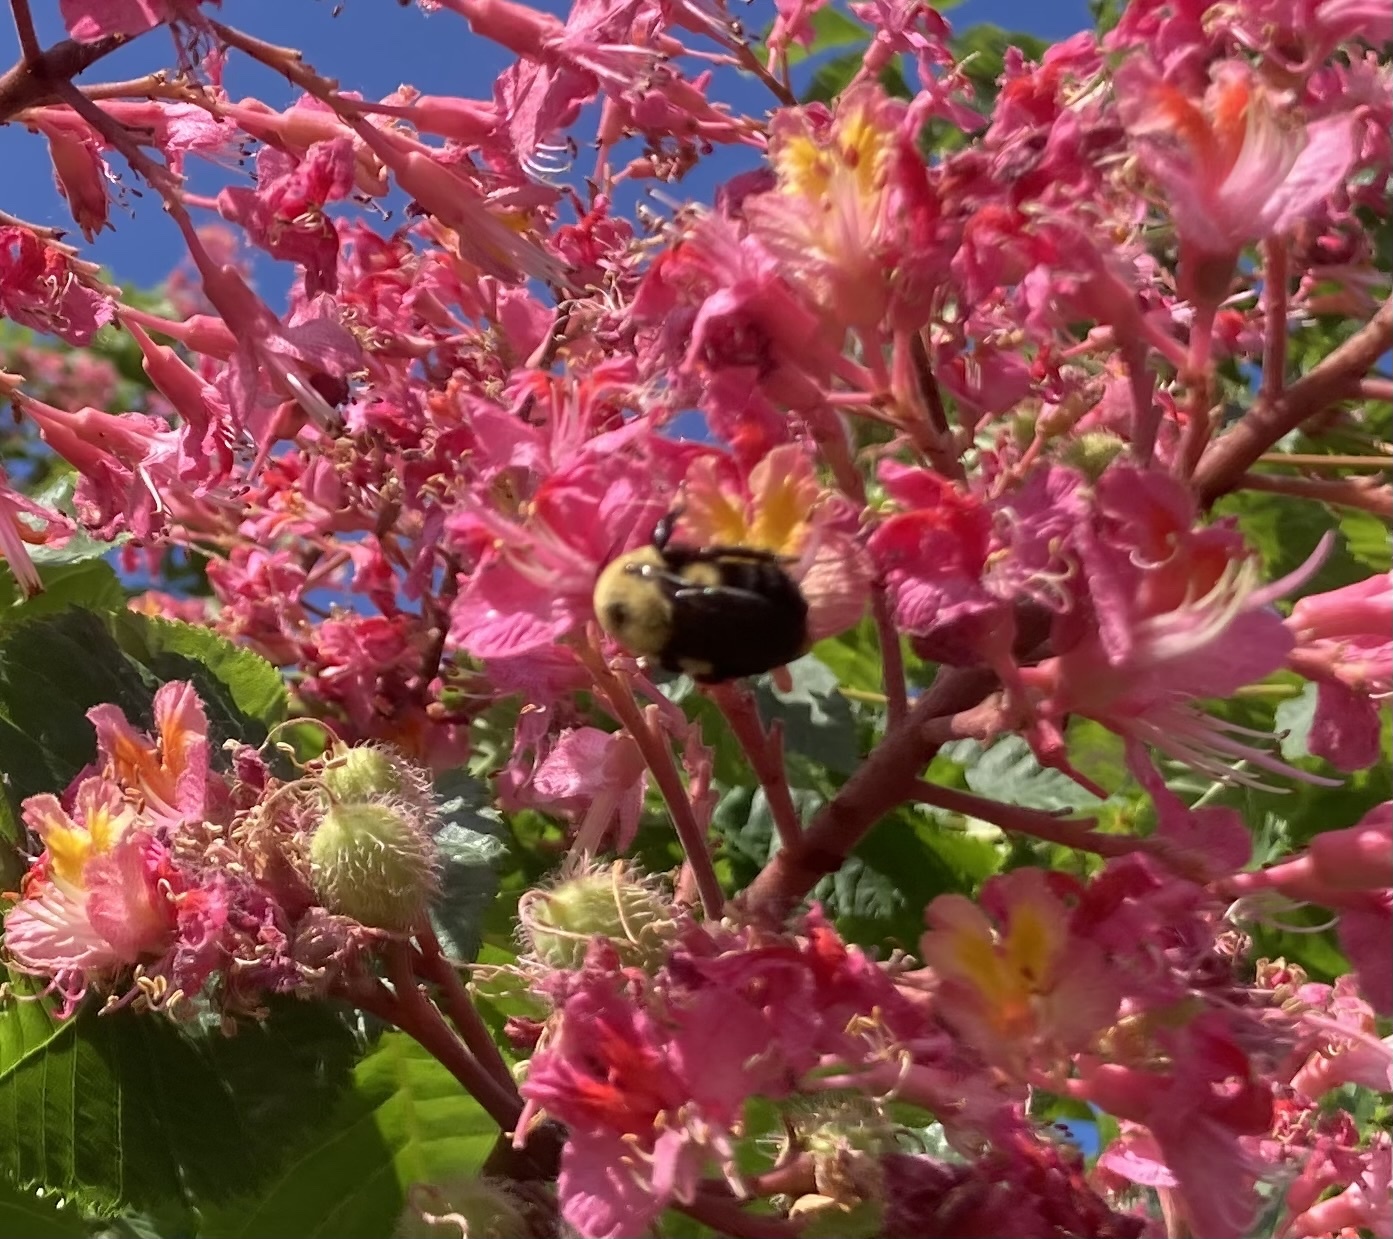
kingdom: Animalia
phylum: Arthropoda
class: Insecta
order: Hymenoptera
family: Apidae
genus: Bombus
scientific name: Bombus griseocollis
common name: Brown-belted bumble bee
